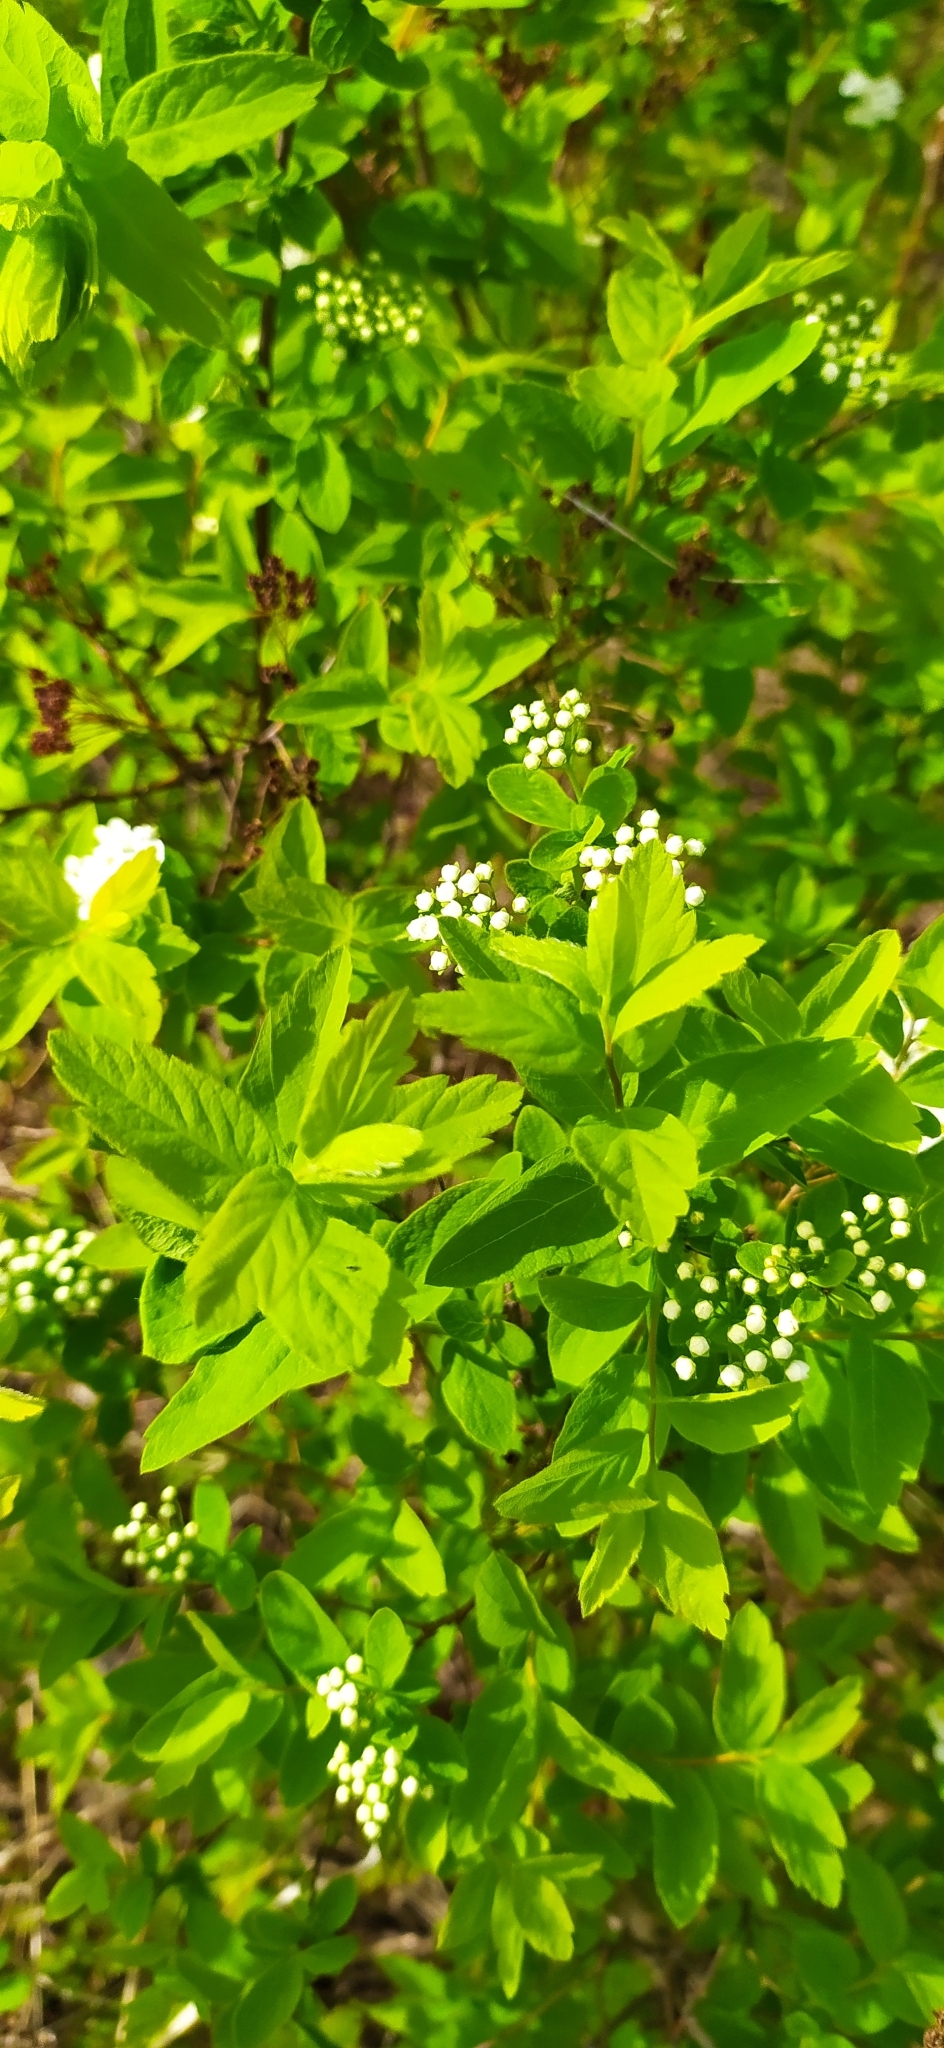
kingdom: Plantae
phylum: Tracheophyta
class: Magnoliopsida
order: Rosales
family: Rosaceae
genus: Spiraea
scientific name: Spiraea media
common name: Russian spiraea
